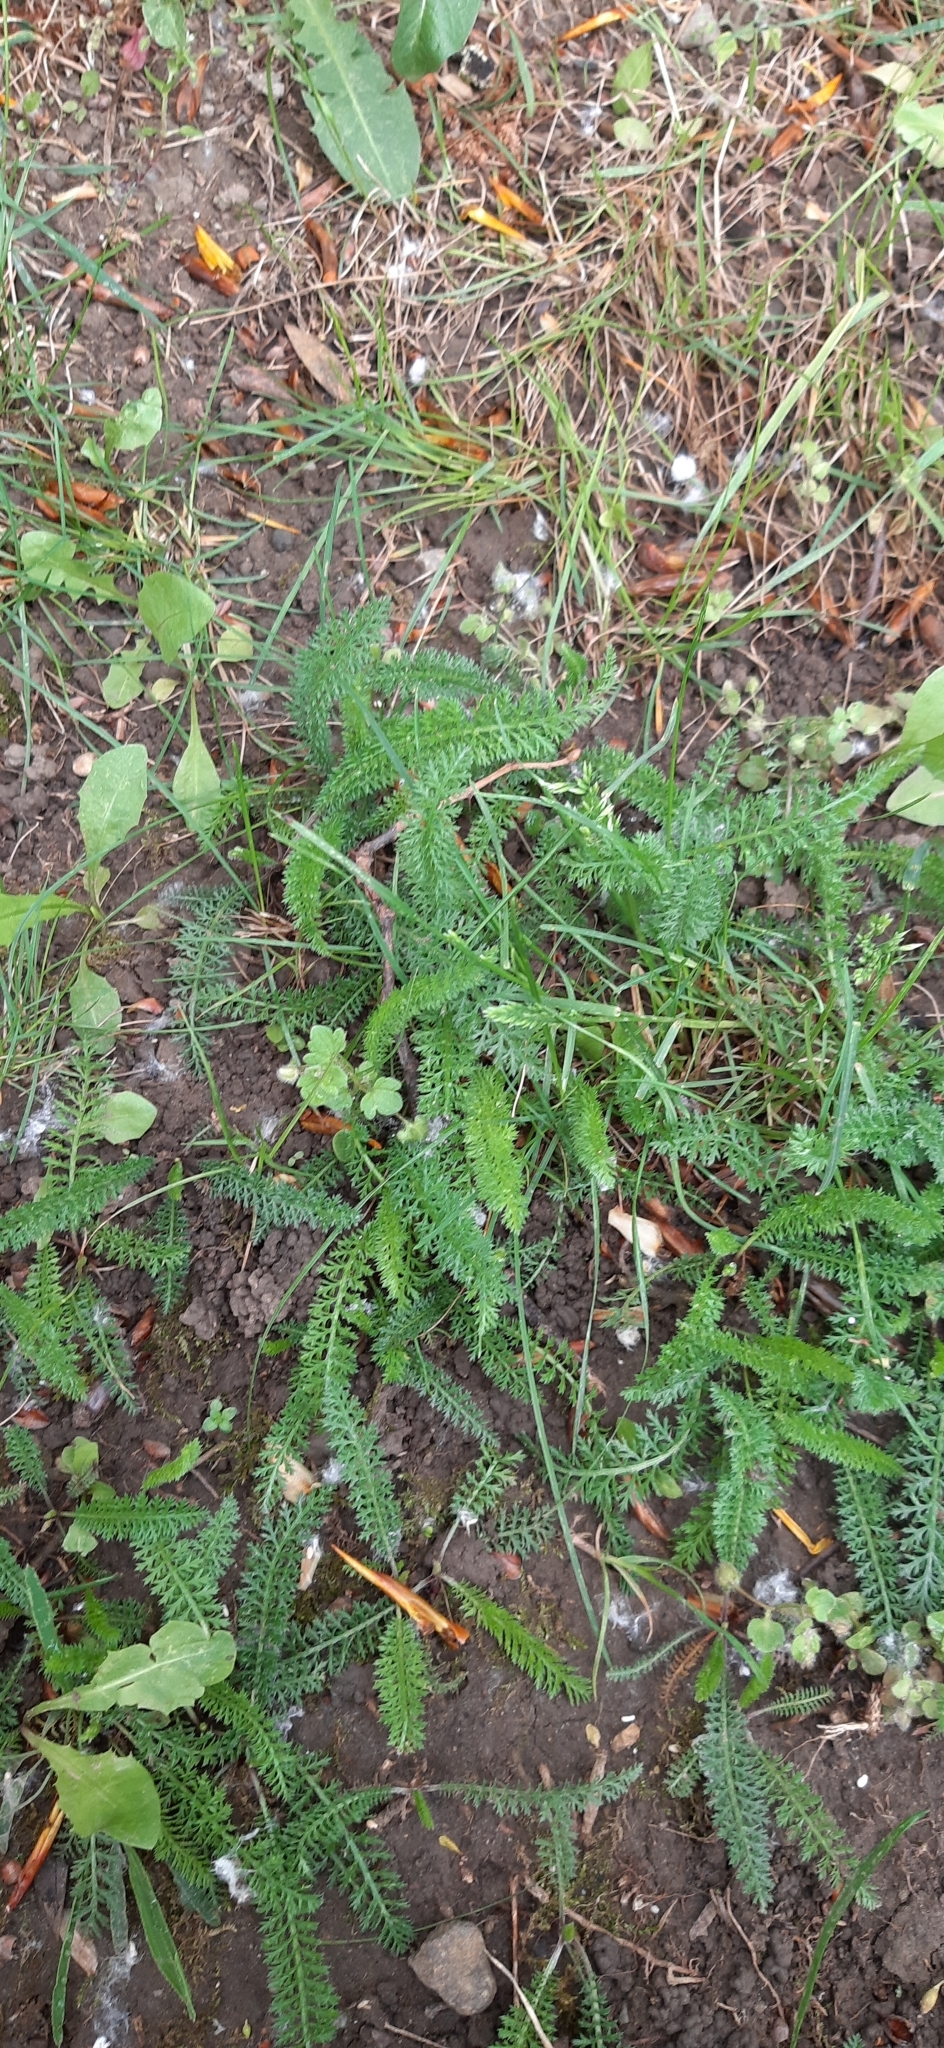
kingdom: Plantae
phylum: Tracheophyta
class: Magnoliopsida
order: Asterales
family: Asteraceae
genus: Achillea
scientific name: Achillea
